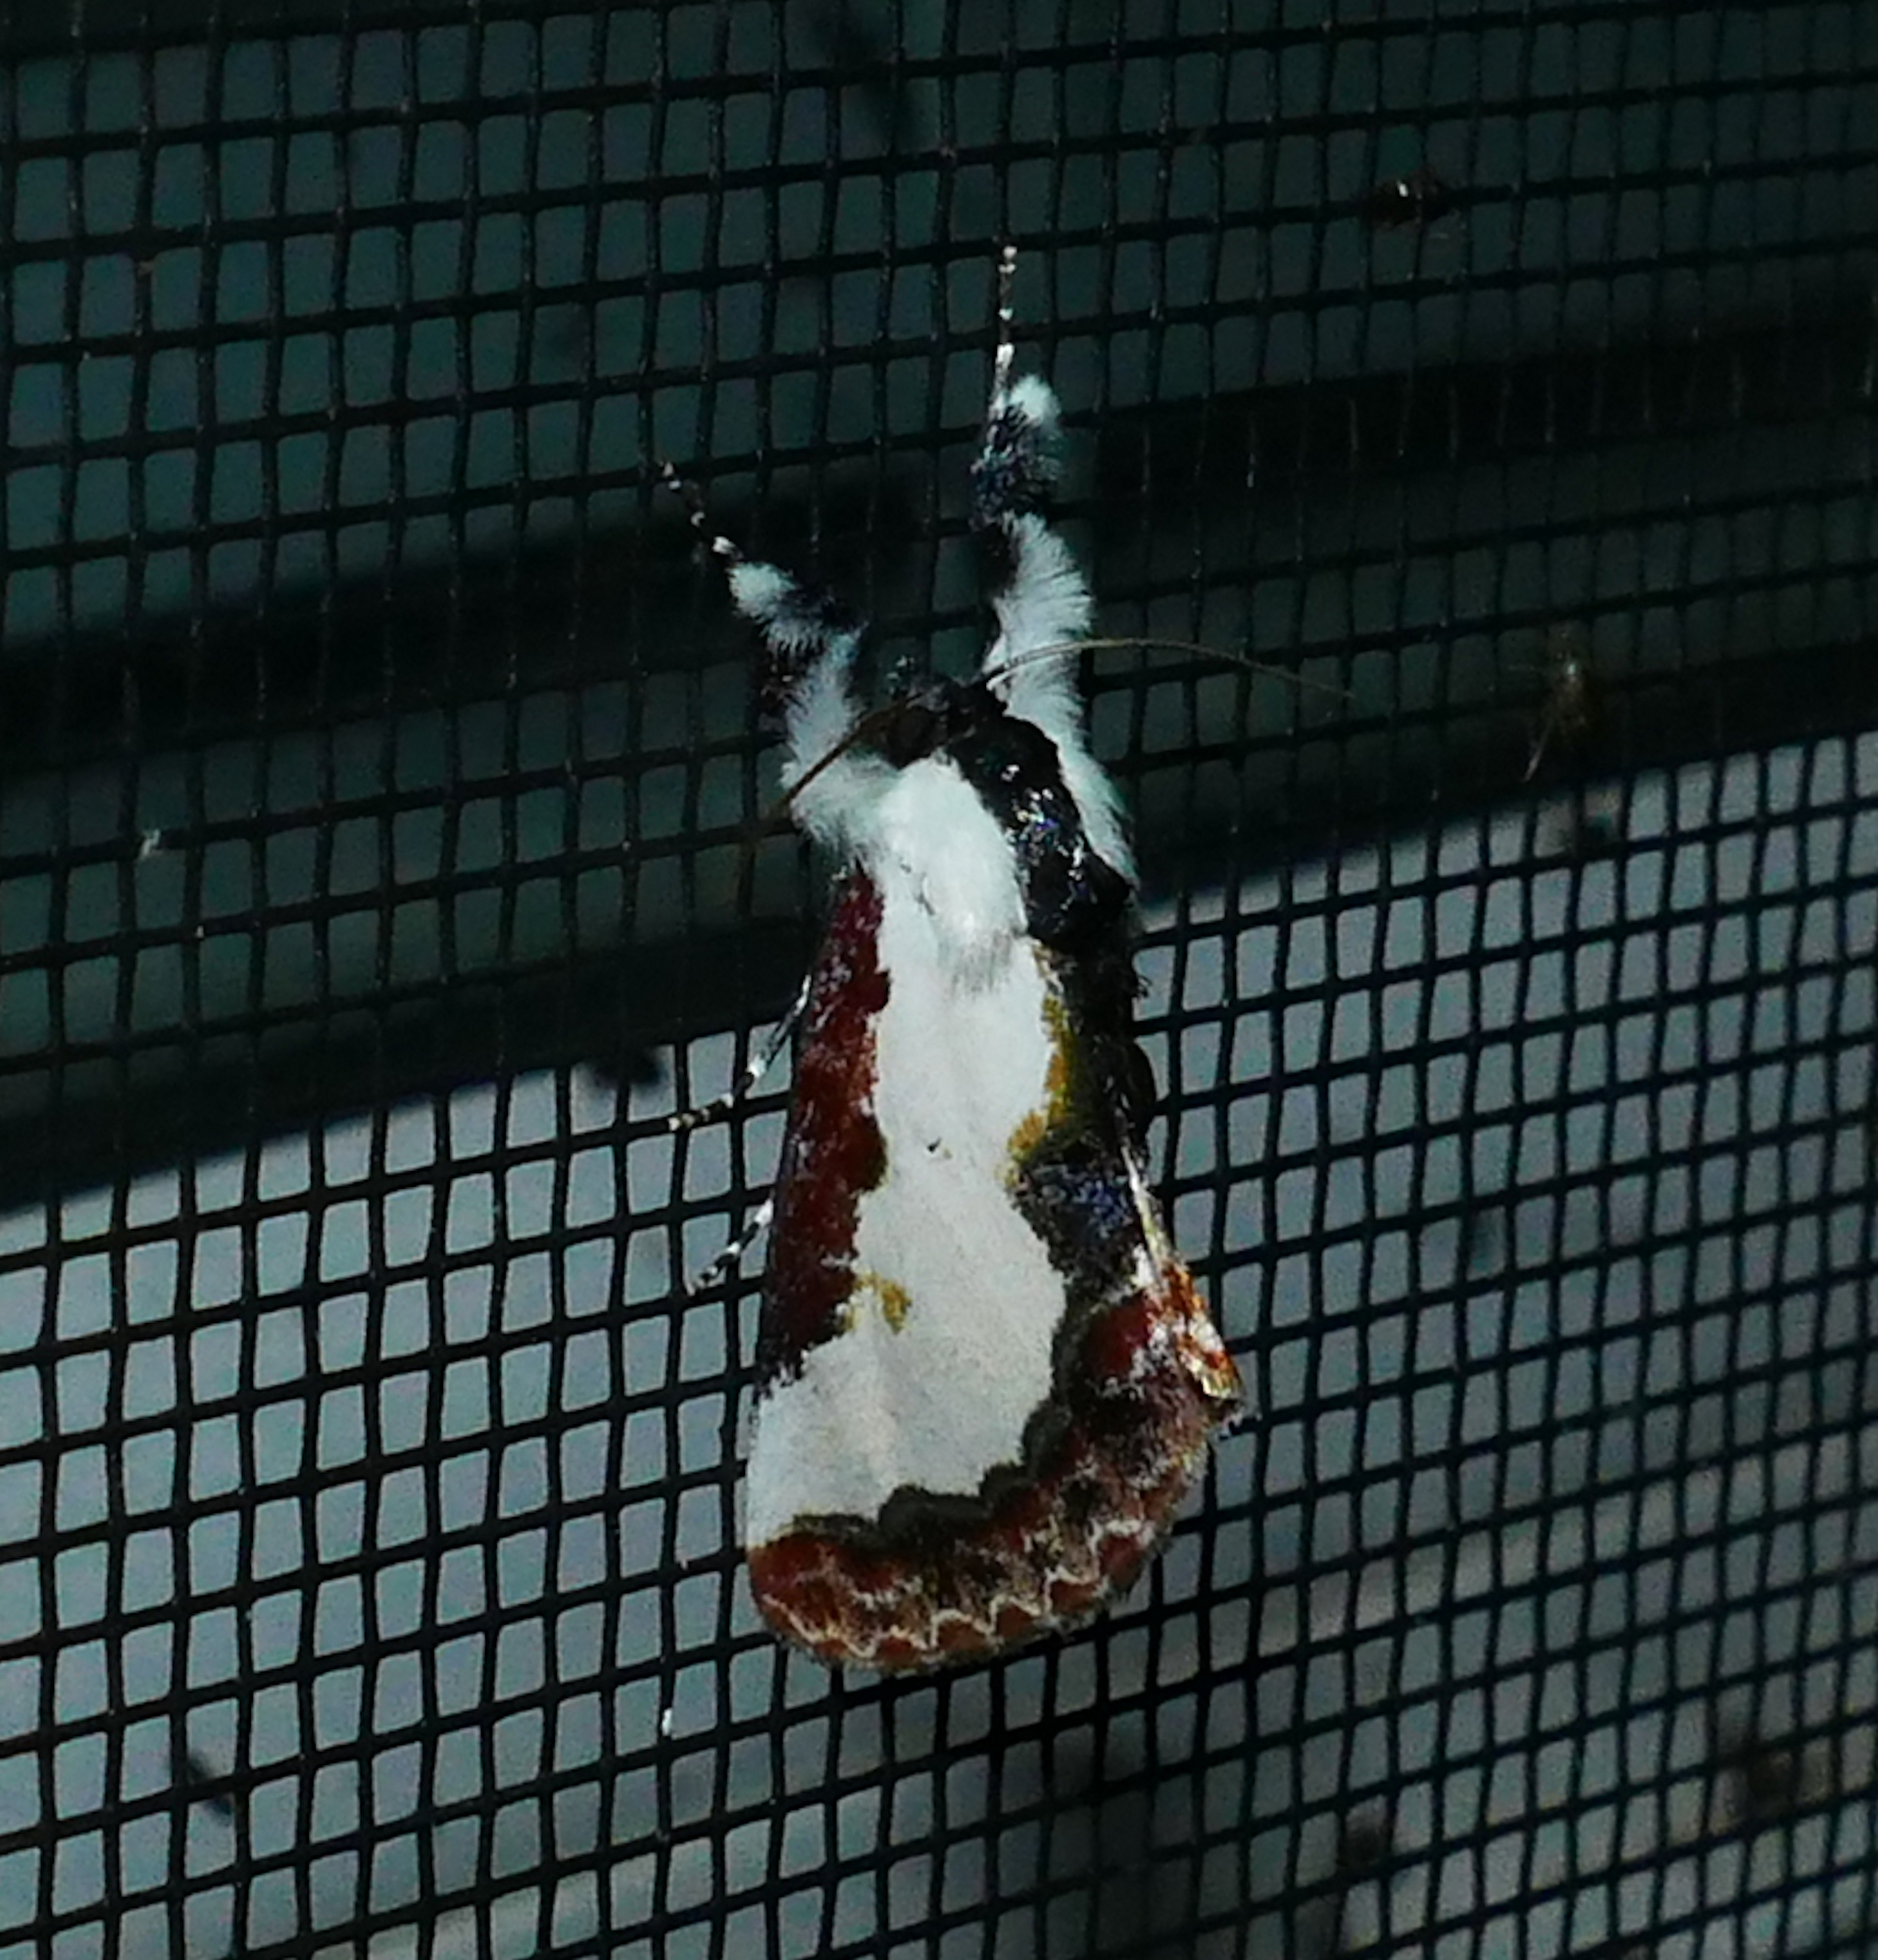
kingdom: Animalia
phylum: Arthropoda
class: Insecta
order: Lepidoptera
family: Noctuidae
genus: Eudryas
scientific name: Eudryas unio
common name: Pearly wood-nymph
